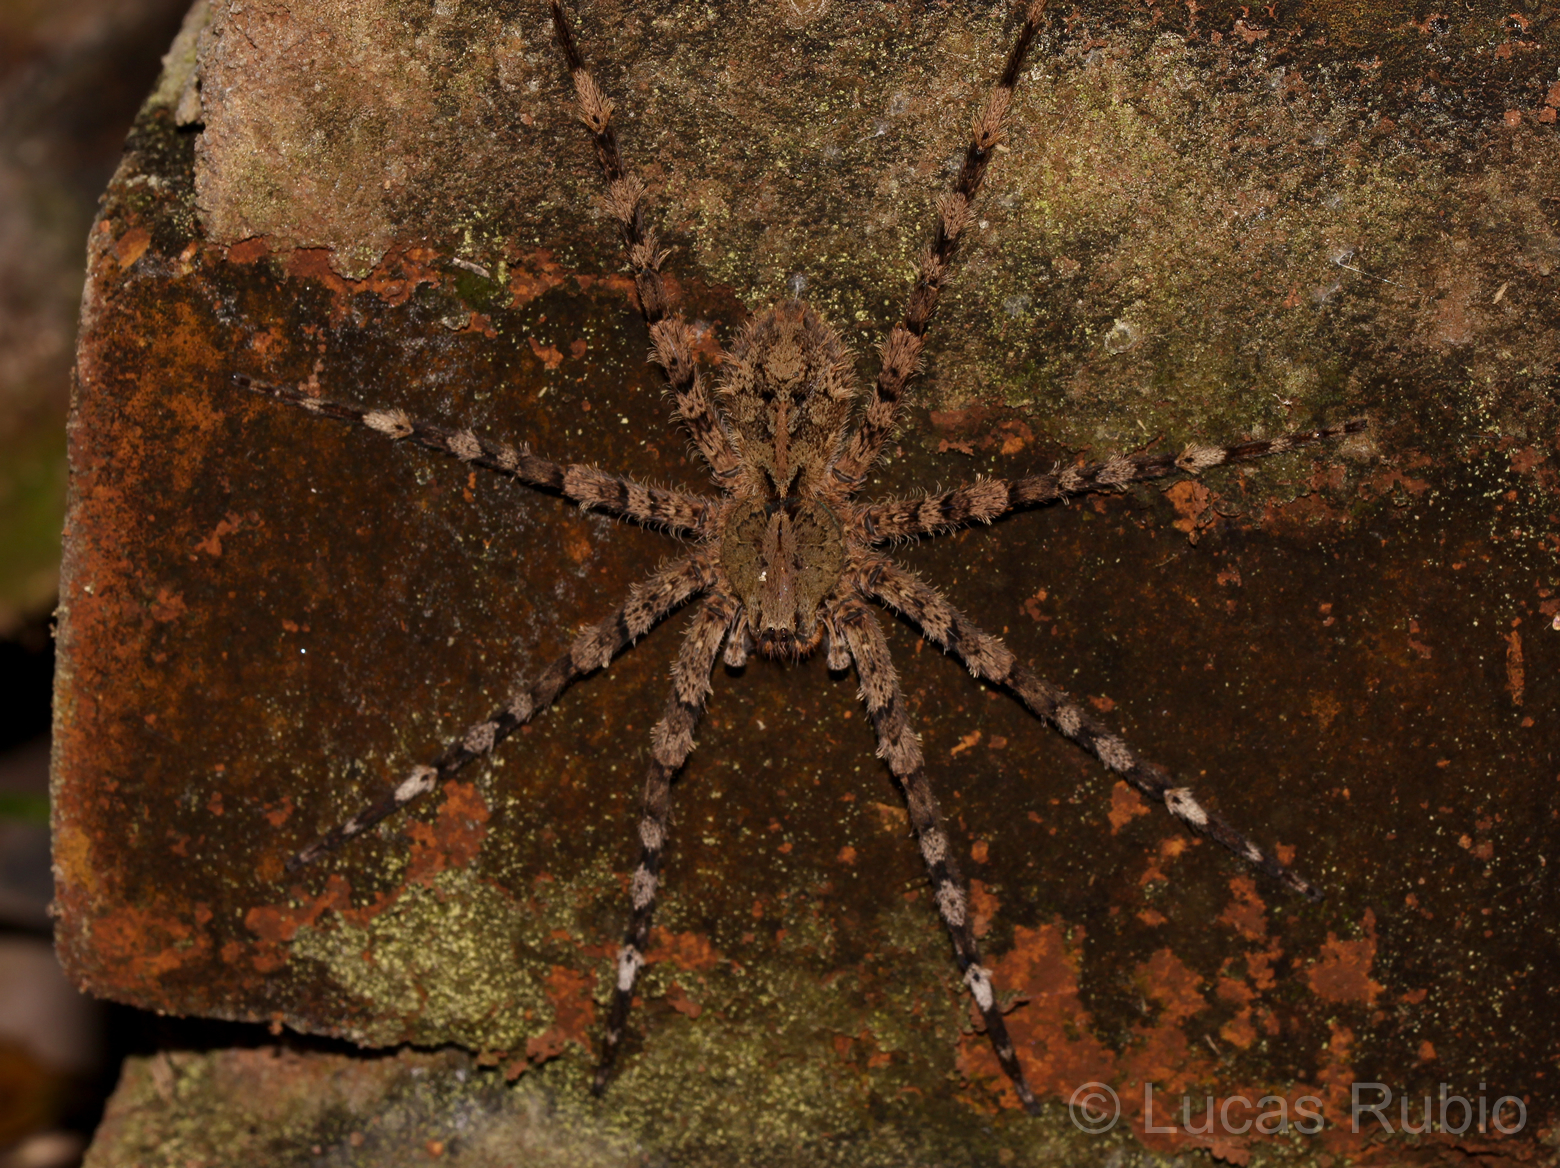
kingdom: Animalia
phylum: Arthropoda
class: Arachnida
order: Araneae
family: Ctenidae
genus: Enoploctenus
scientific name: Enoploctenus cyclothorax
